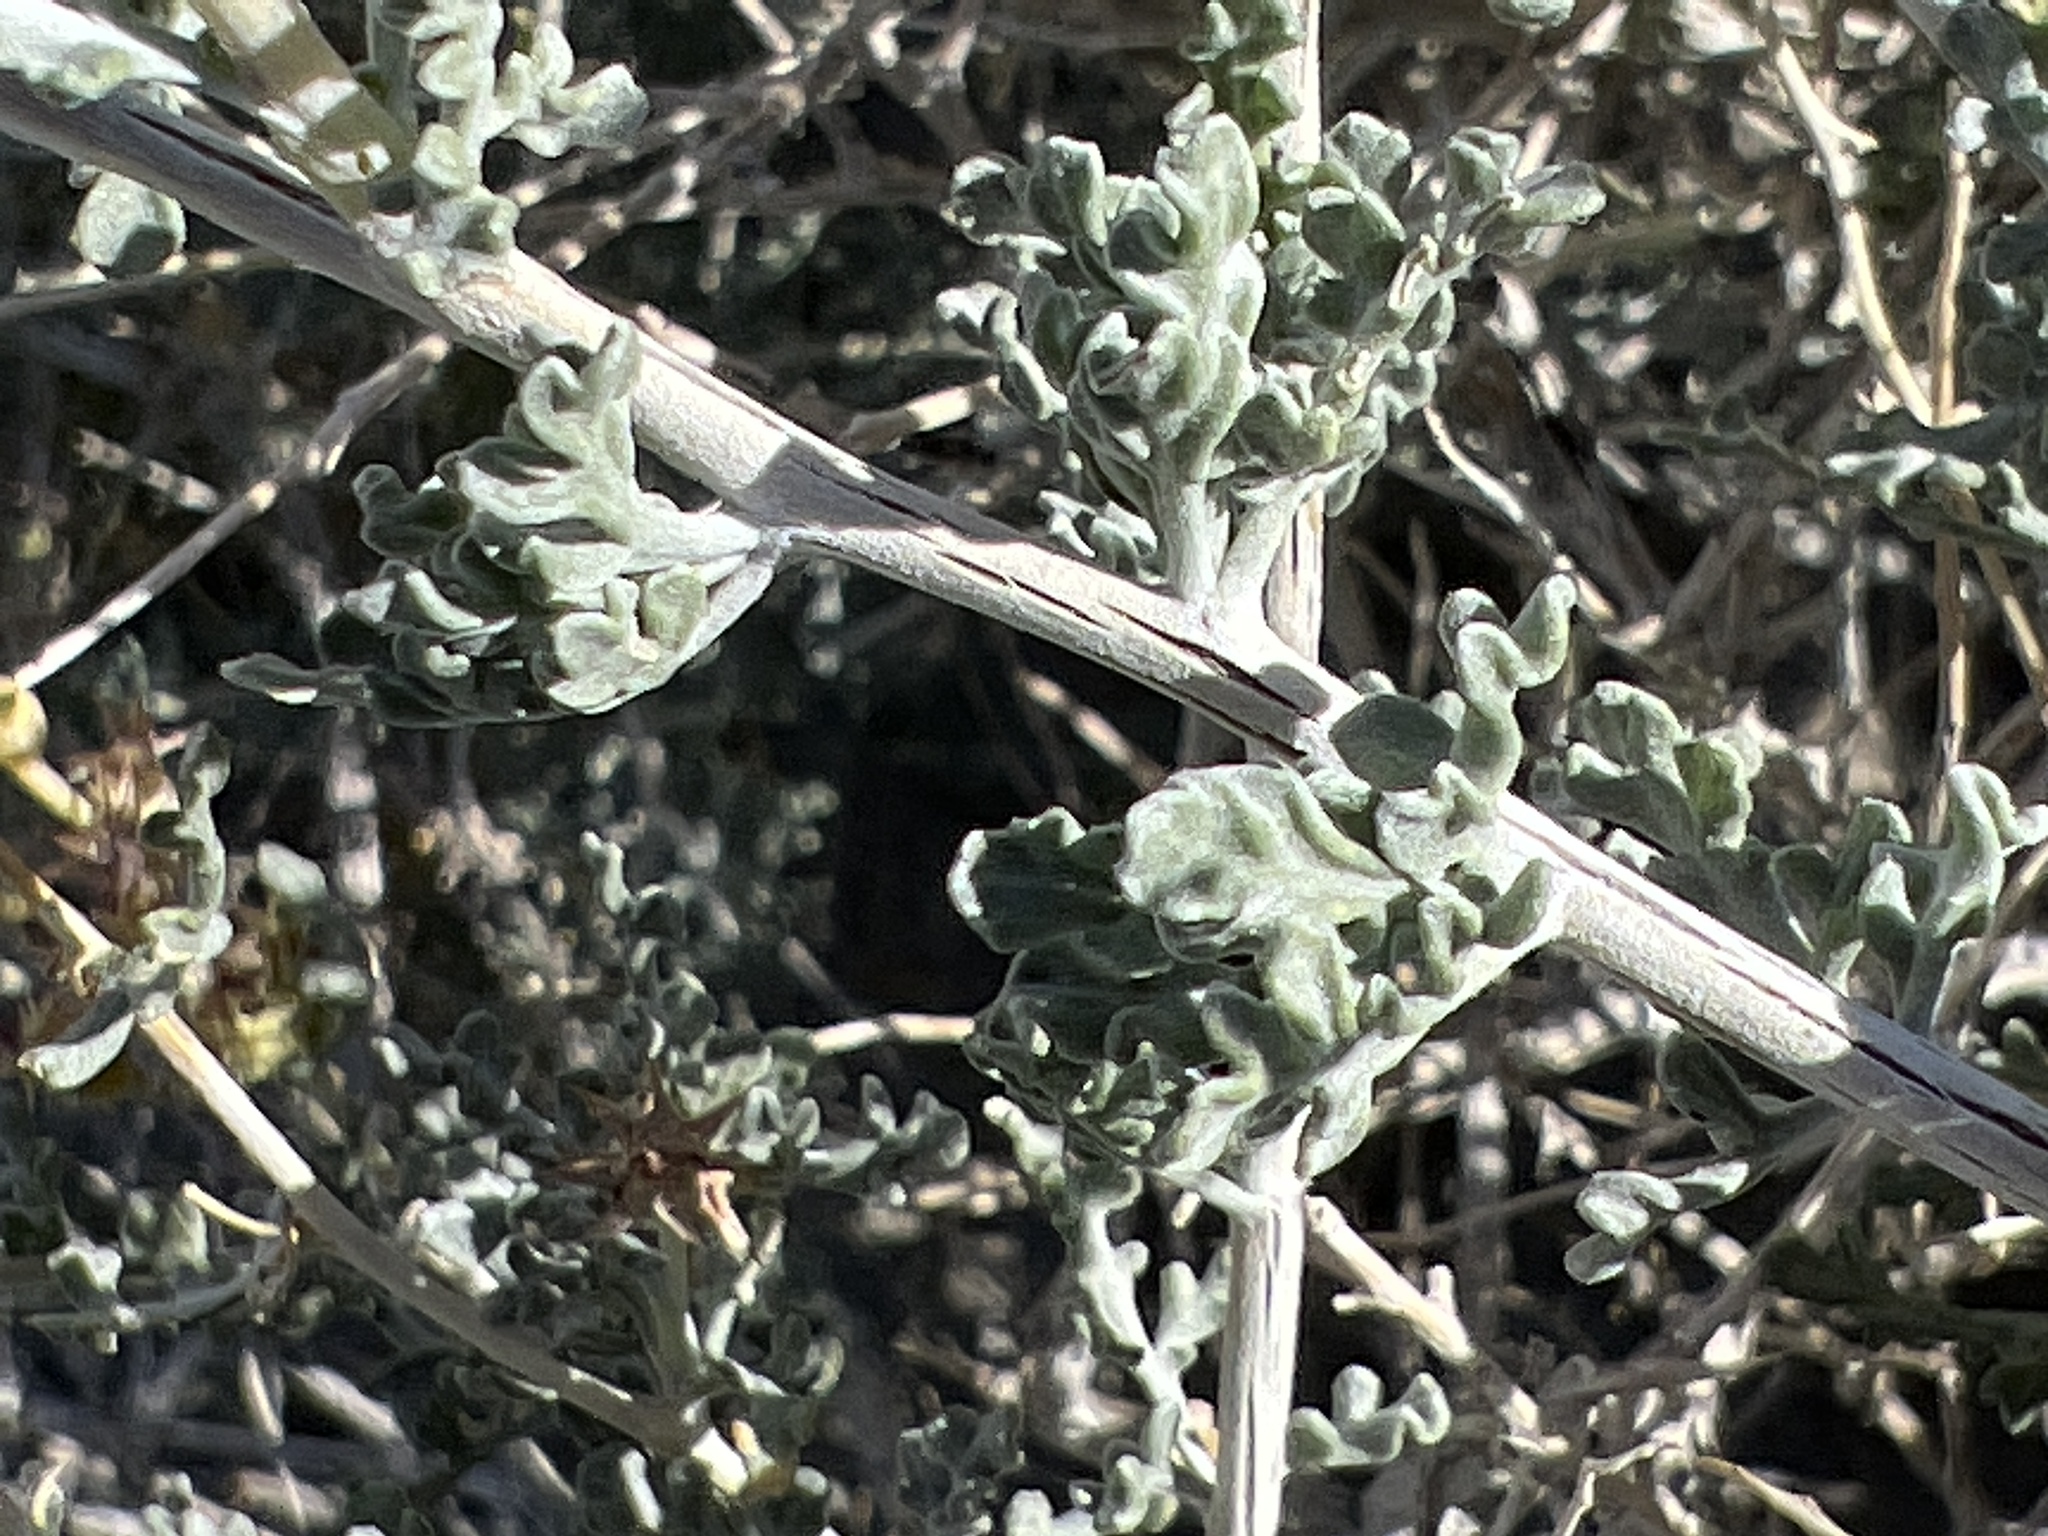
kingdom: Plantae
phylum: Tracheophyta
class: Magnoliopsida
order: Asterales
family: Asteraceae
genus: Ambrosia
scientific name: Ambrosia dumosa
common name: Bur-sage
